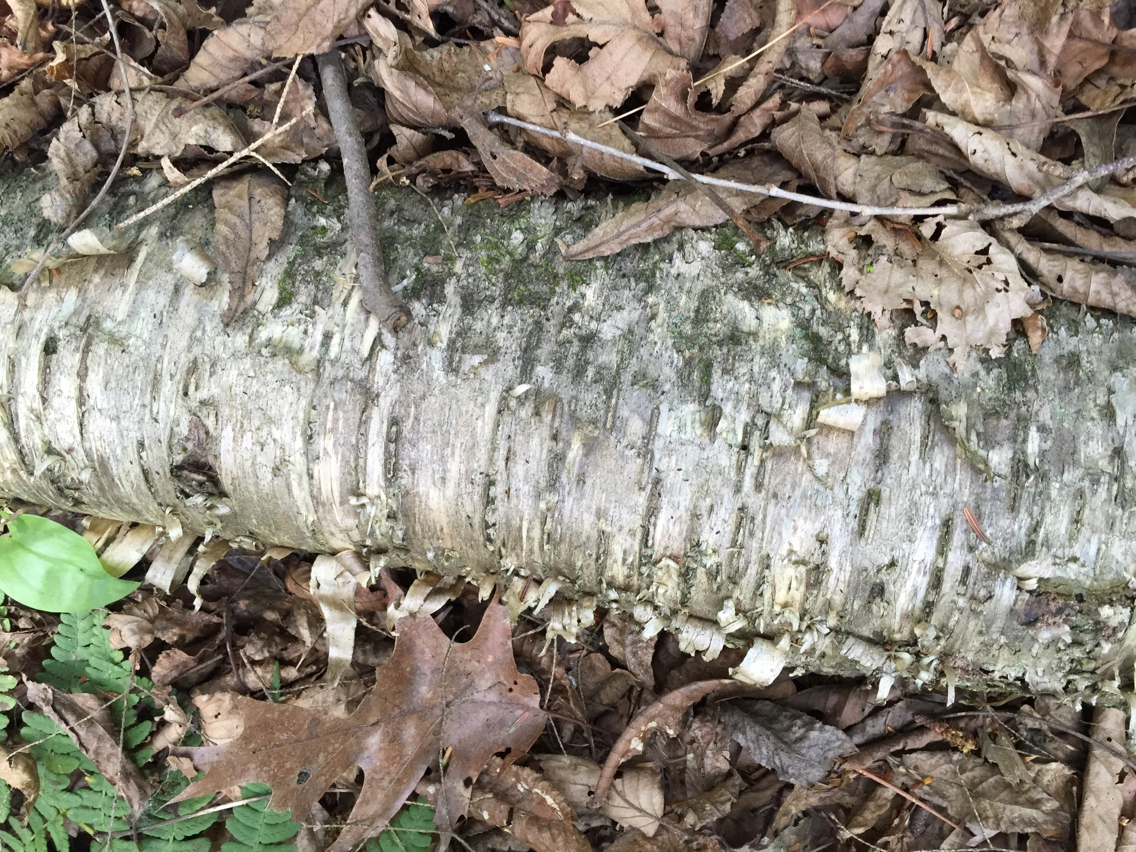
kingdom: Plantae
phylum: Tracheophyta
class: Magnoliopsida
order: Fagales
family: Betulaceae
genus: Betula
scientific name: Betula alleghaniensis
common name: Yellow birch
